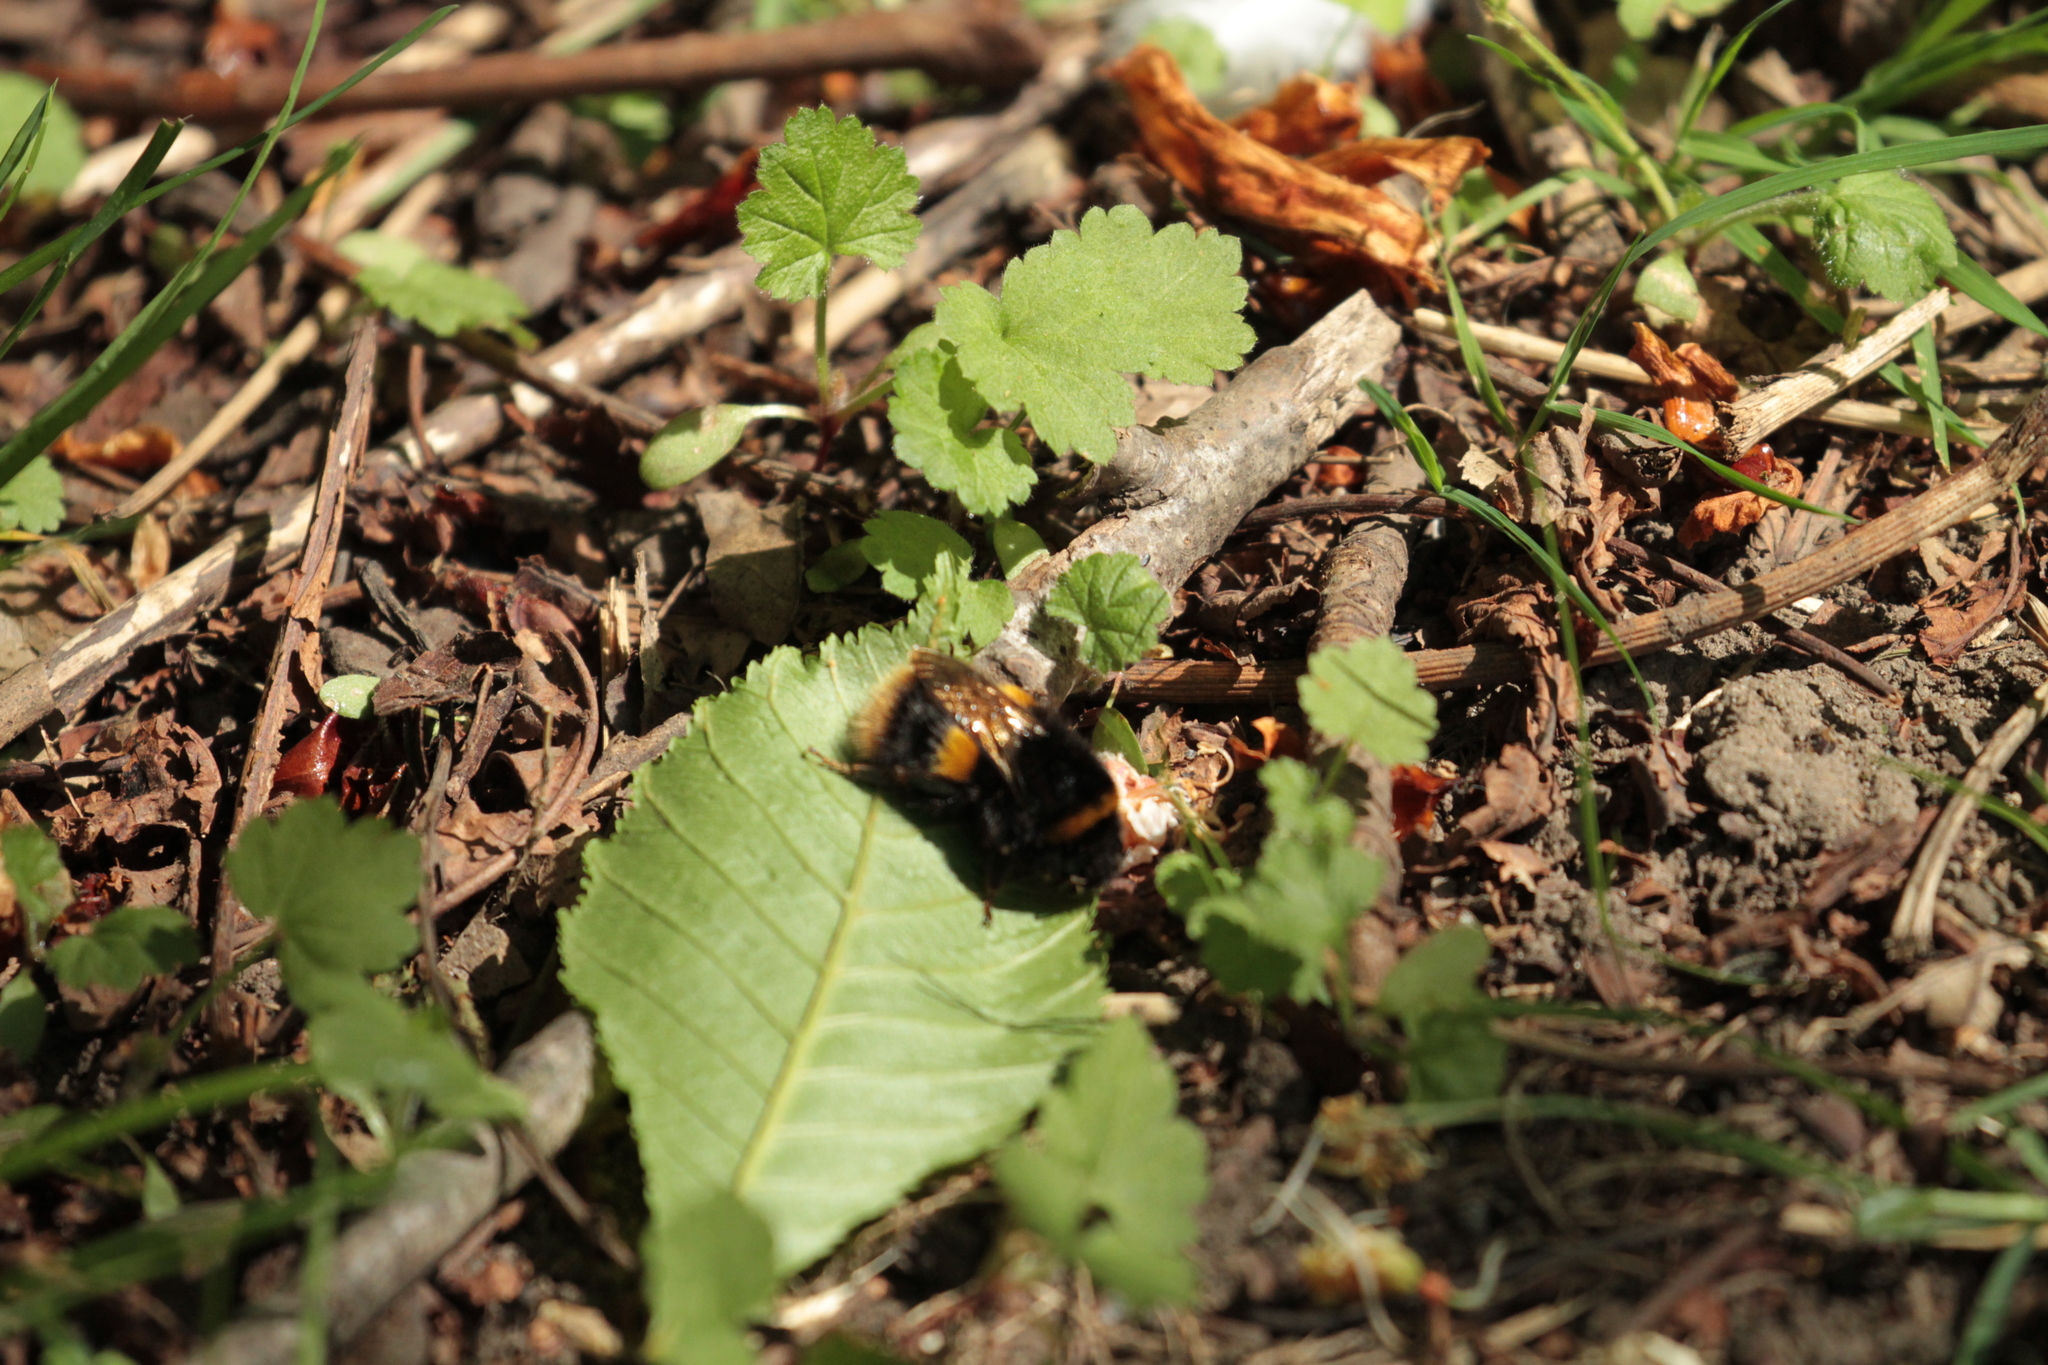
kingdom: Animalia
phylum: Arthropoda
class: Insecta
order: Hymenoptera
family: Apidae
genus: Bombus
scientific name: Bombus terrestris
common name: Buff-tailed bumblebee
